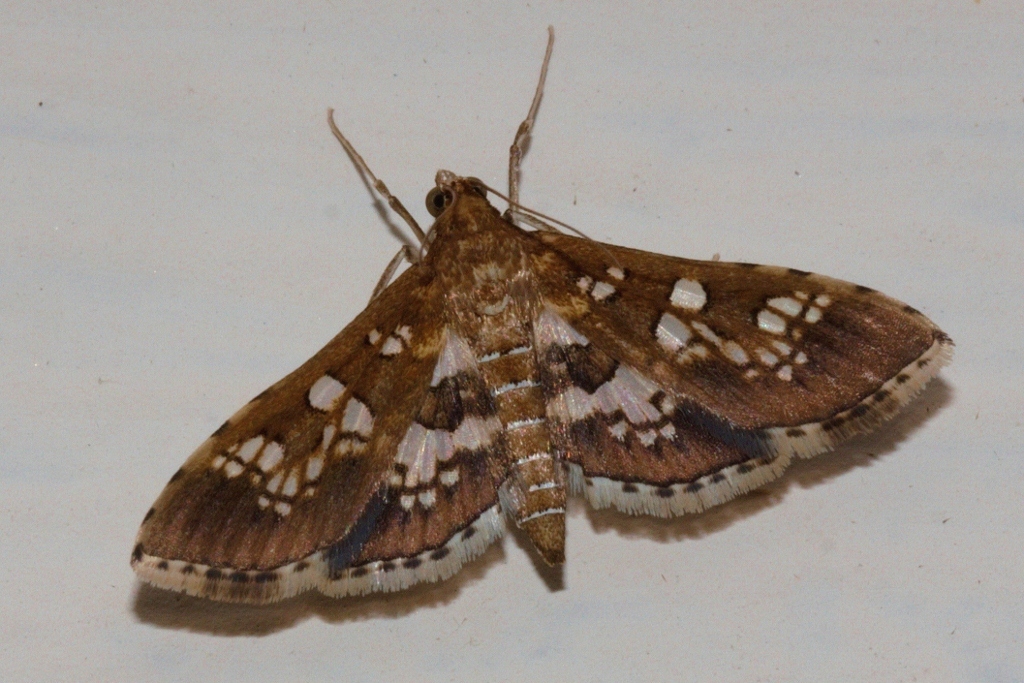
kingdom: Animalia
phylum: Arthropoda
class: Insecta
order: Lepidoptera
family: Crambidae
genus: Sameodes
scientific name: Sameodes cancellalis
